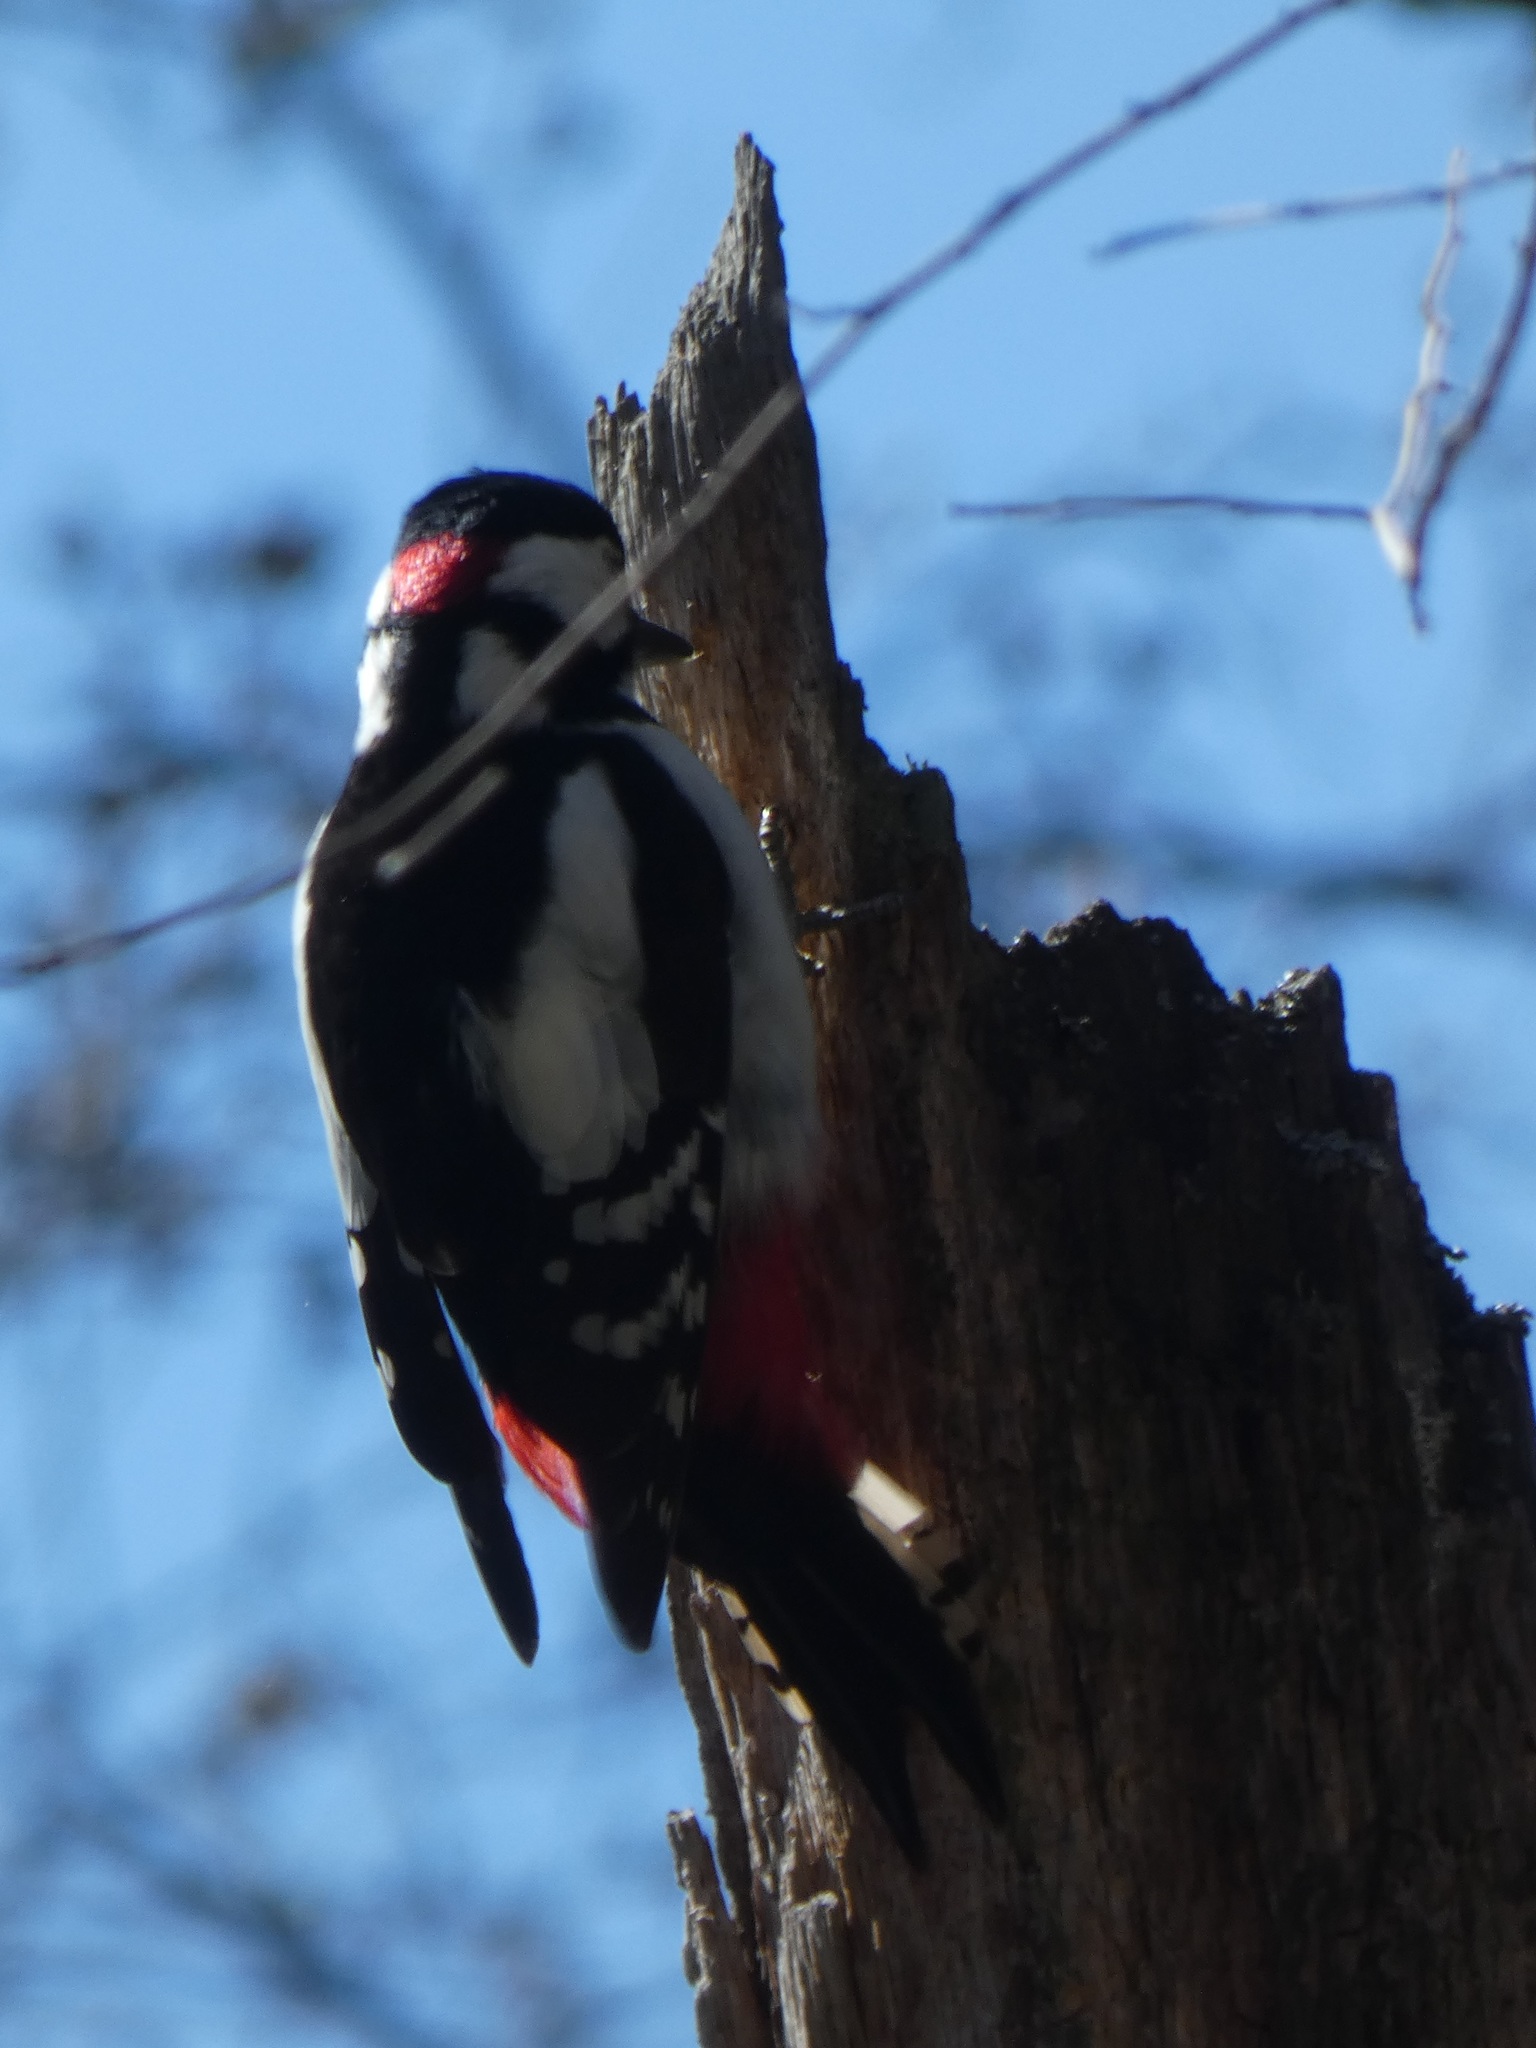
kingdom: Animalia
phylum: Chordata
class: Aves
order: Piciformes
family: Picidae
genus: Dendrocopos
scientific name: Dendrocopos major
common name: Great spotted woodpecker
